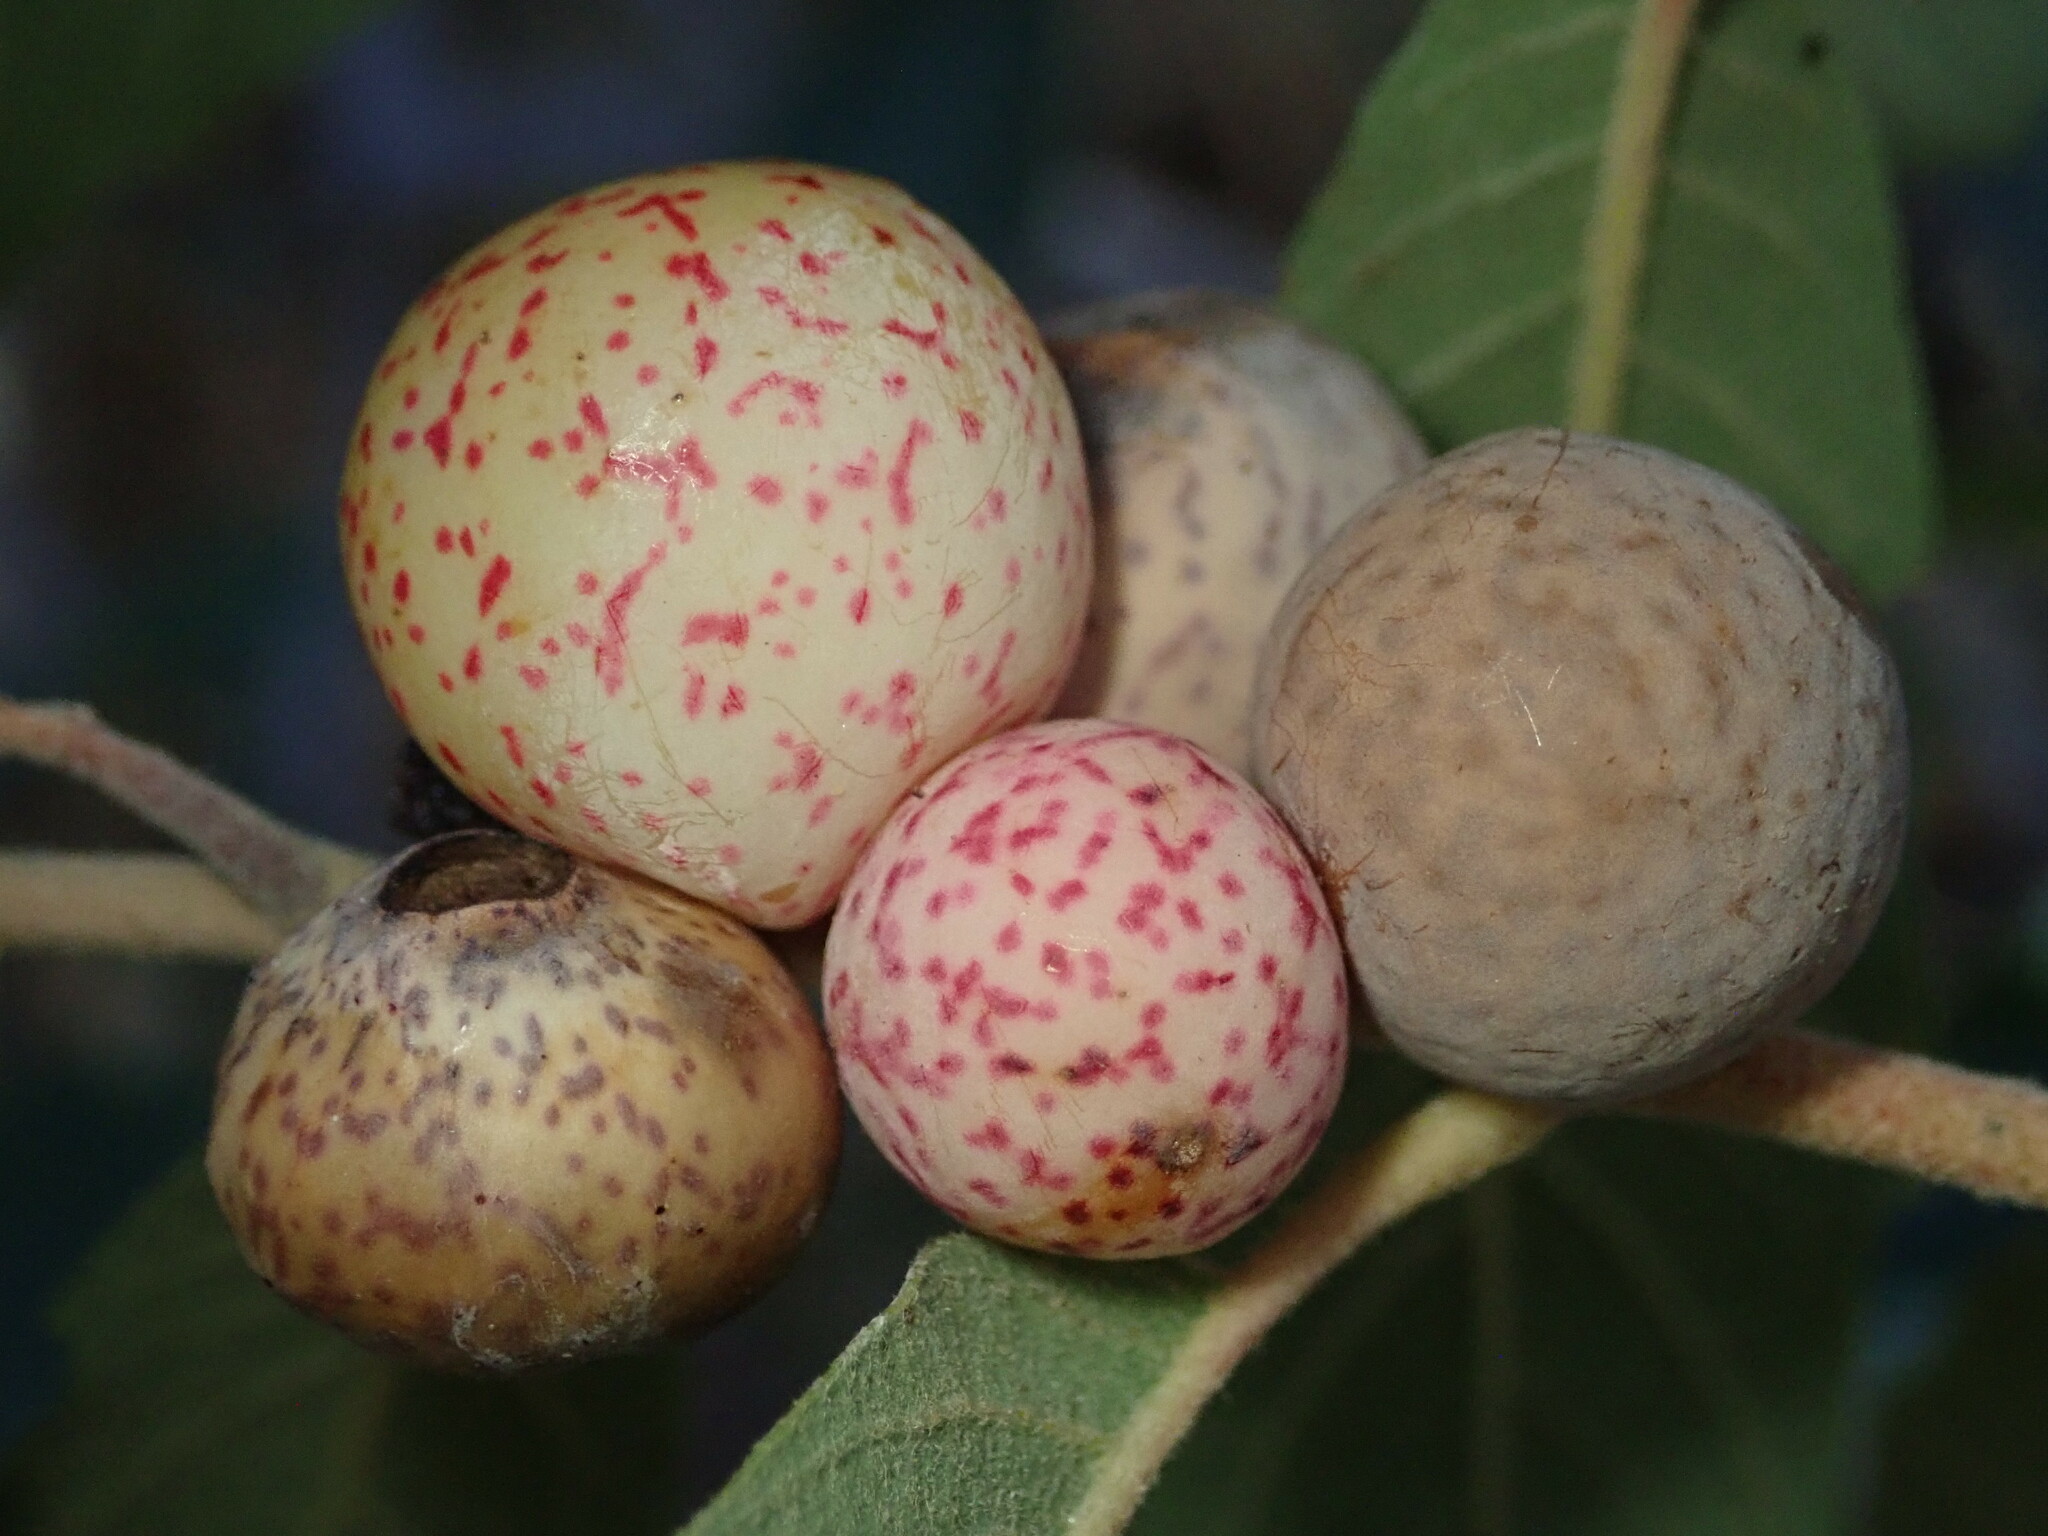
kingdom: Animalia
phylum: Arthropoda
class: Insecta
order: Hymenoptera
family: Cynipidae
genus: Atrusca
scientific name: Atrusca
